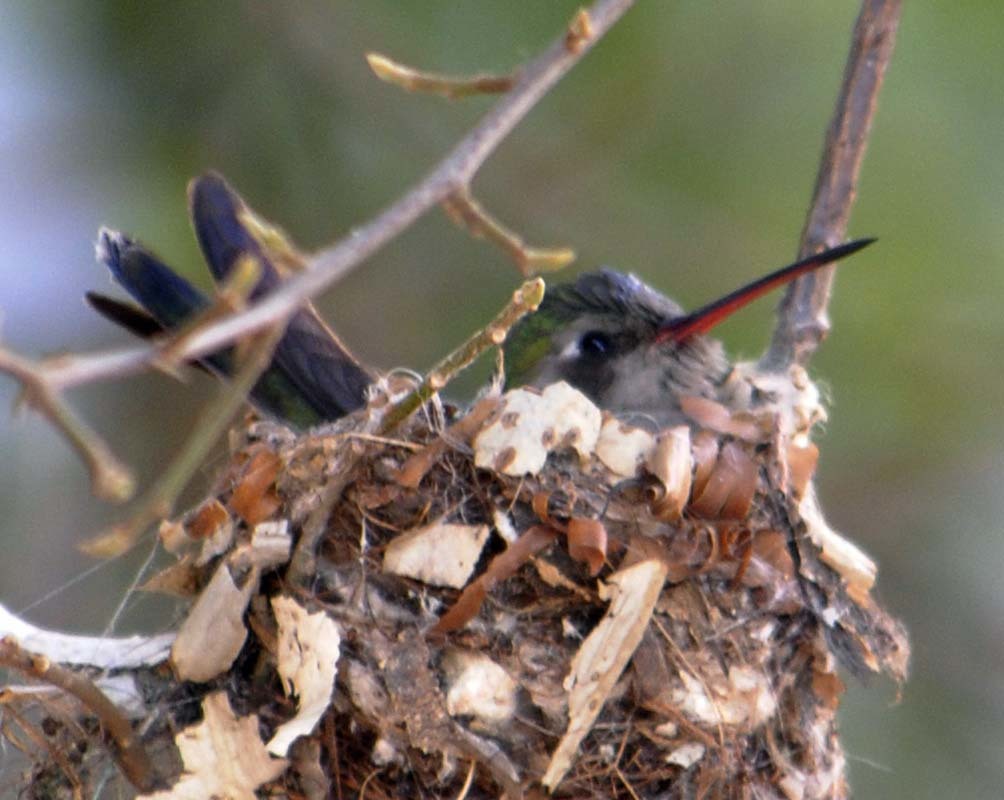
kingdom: Animalia
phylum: Chordata
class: Aves
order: Apodiformes
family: Trochilidae
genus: Cynanthus
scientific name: Cynanthus latirostris
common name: Broad-billed hummingbird
